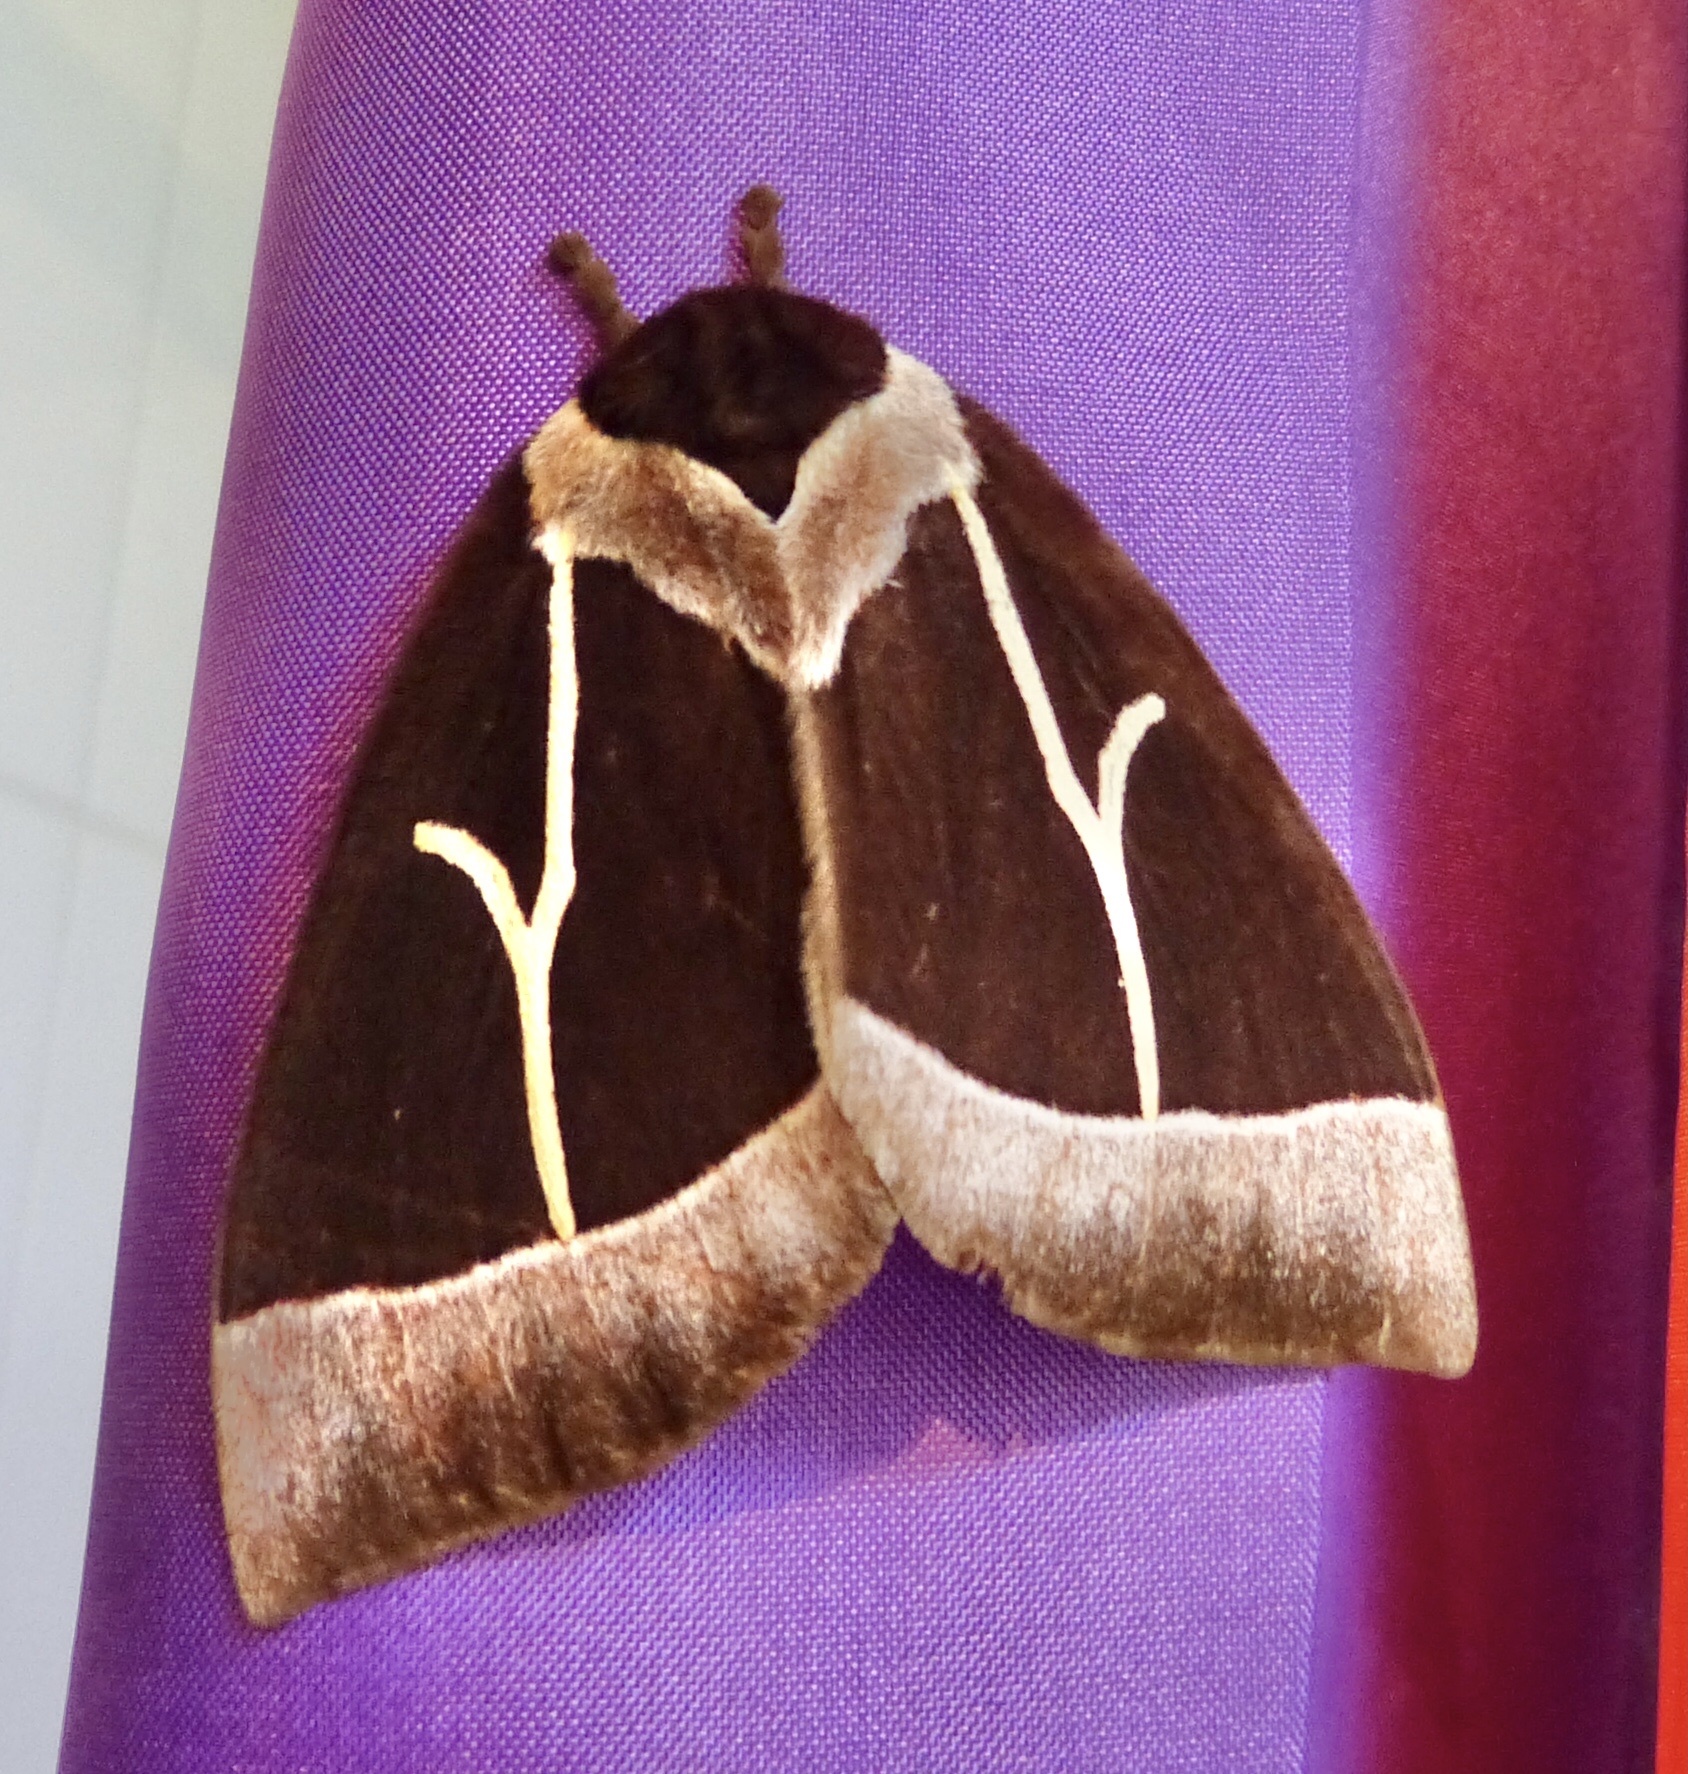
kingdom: Animalia
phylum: Arthropoda
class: Insecta
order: Lepidoptera
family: Saturniidae
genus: Dirphia
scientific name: Dirphia tarquinia
